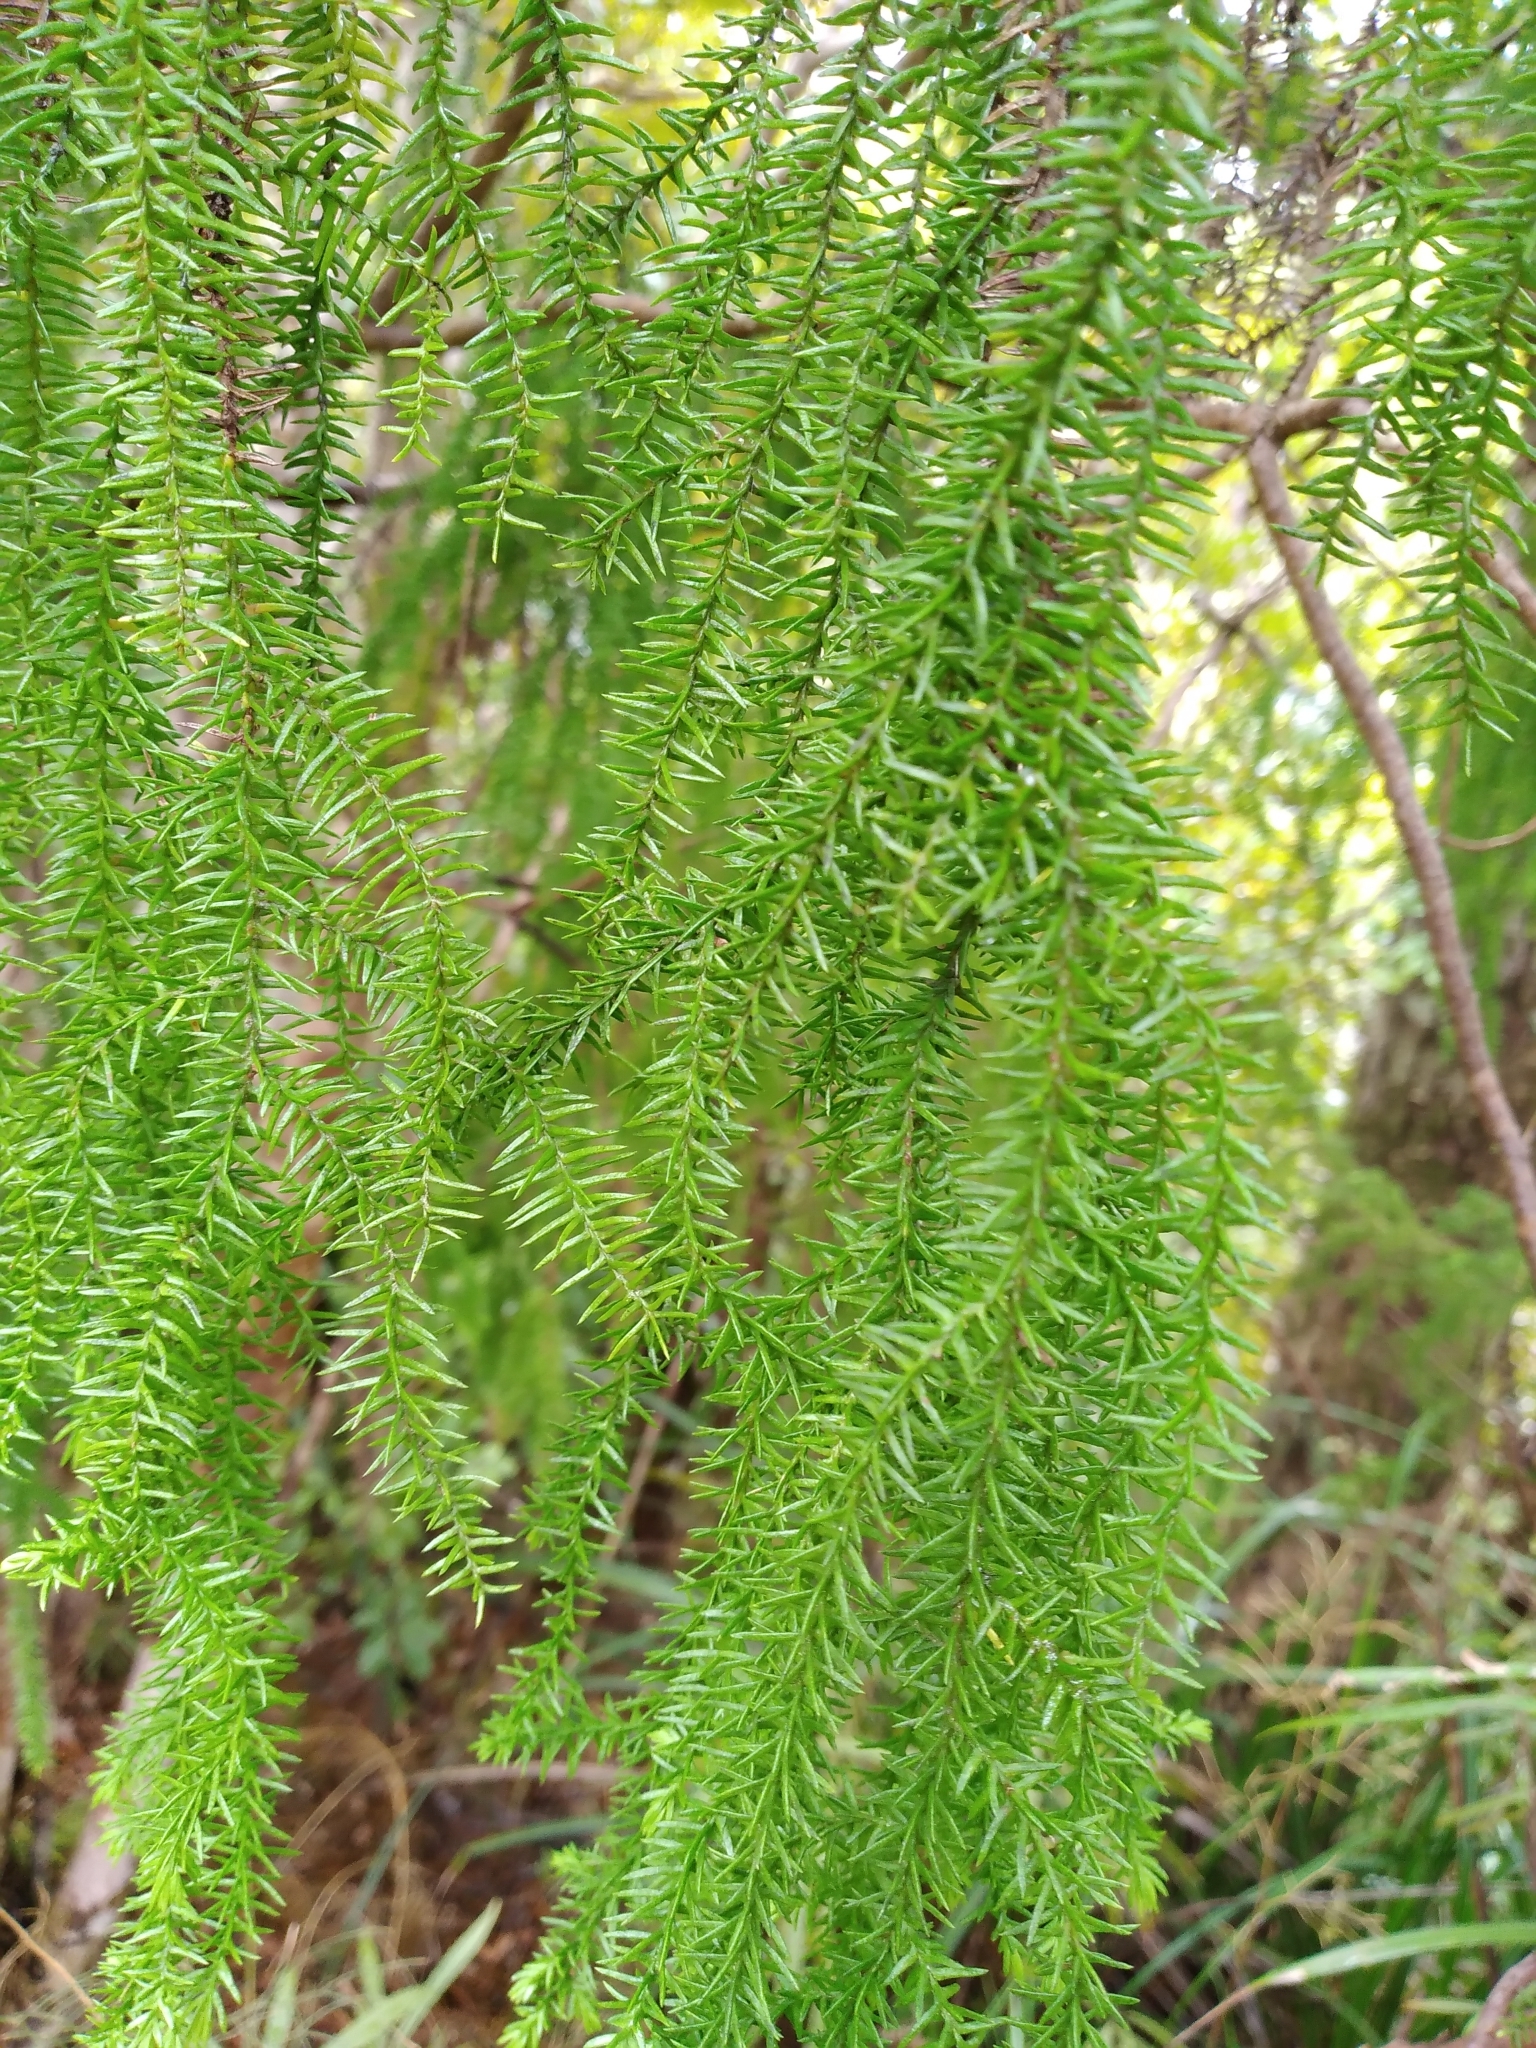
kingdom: Plantae
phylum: Tracheophyta
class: Pinopsida
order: Pinales
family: Podocarpaceae
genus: Lepidothamnus
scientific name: Lepidothamnus intermedius
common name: Yellow silver pine
